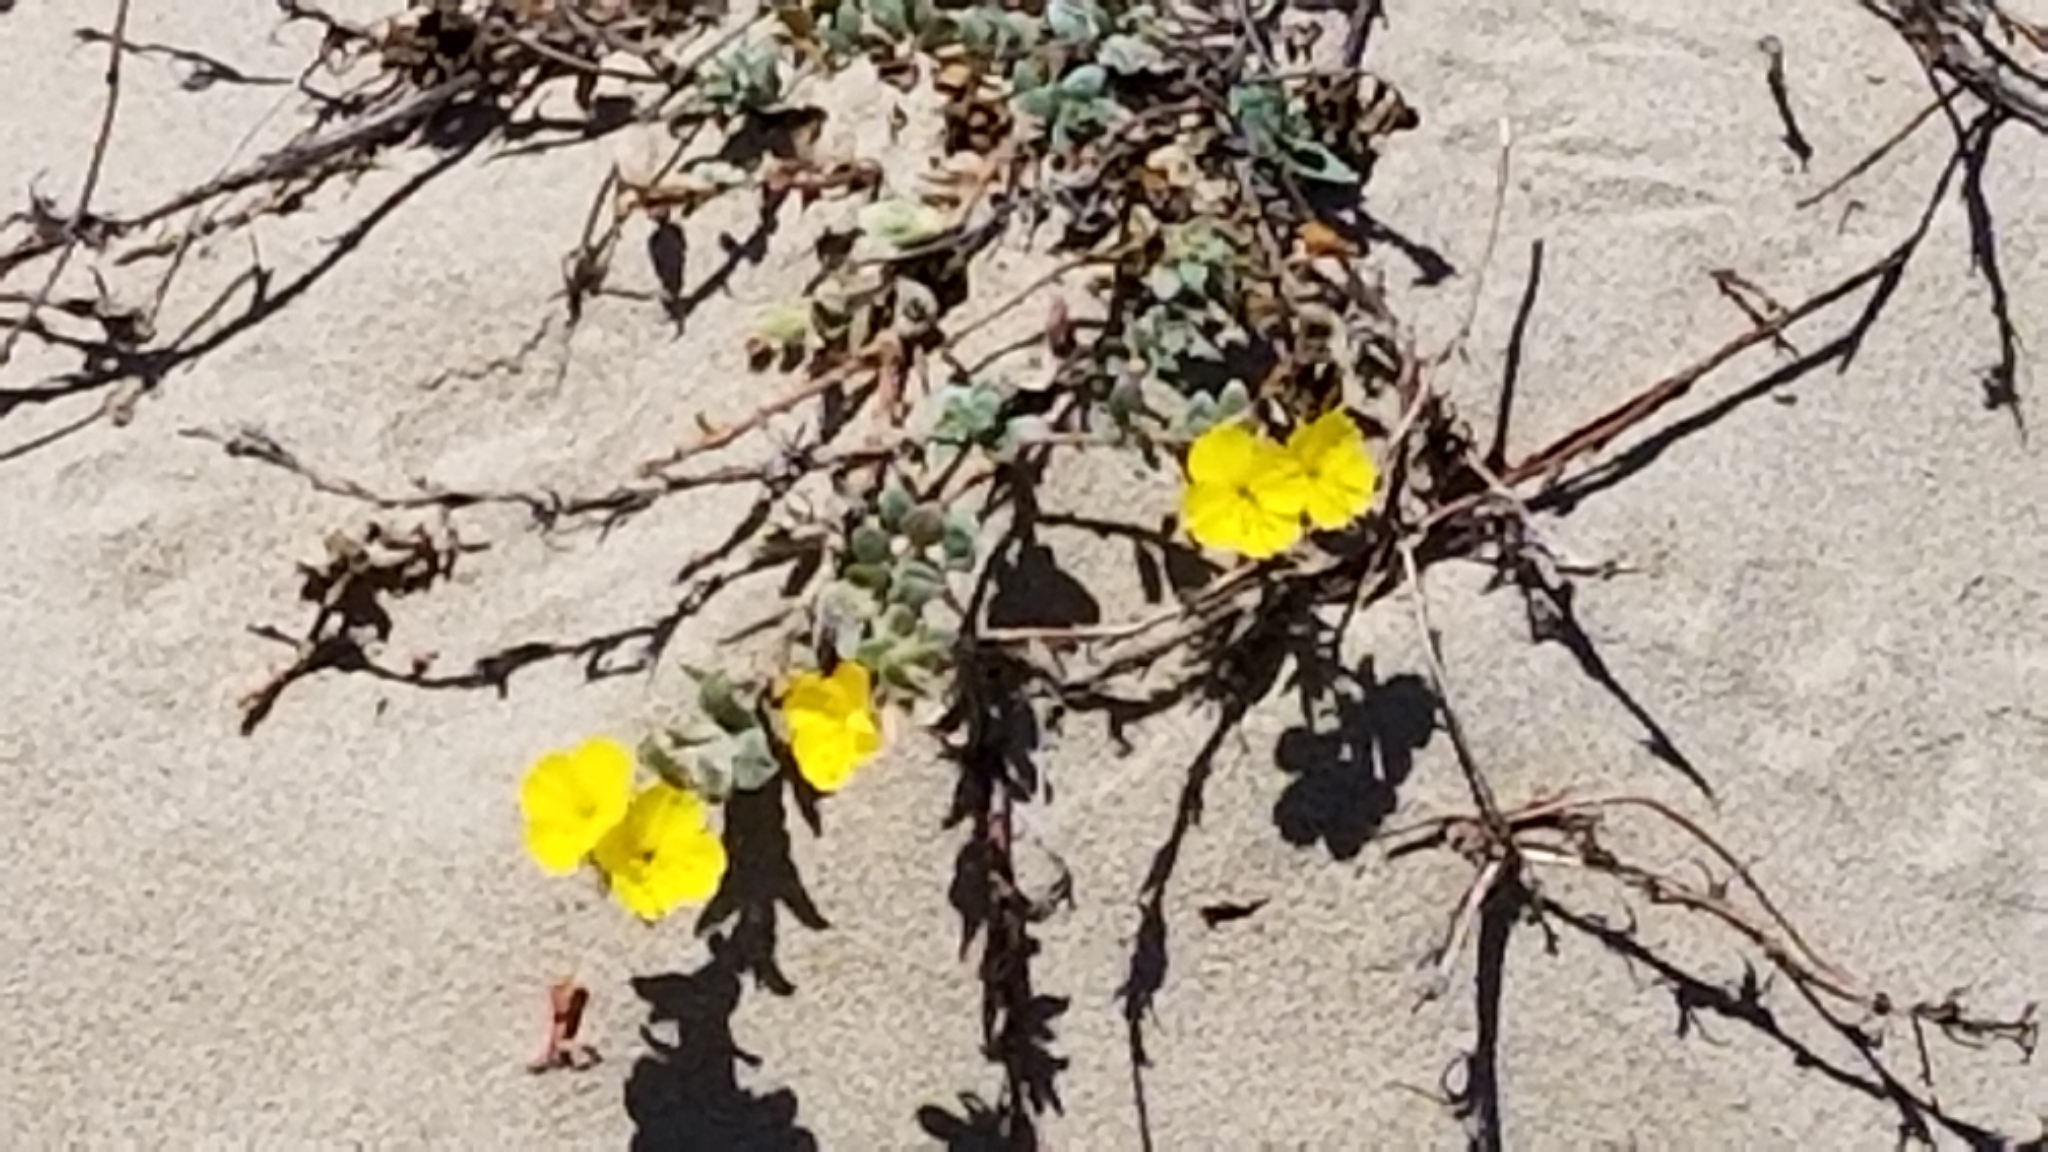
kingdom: Plantae
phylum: Tracheophyta
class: Magnoliopsida
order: Myrtales
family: Onagraceae
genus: Camissoniopsis
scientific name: Camissoniopsis cheiranthifolia
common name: Beach suncup
